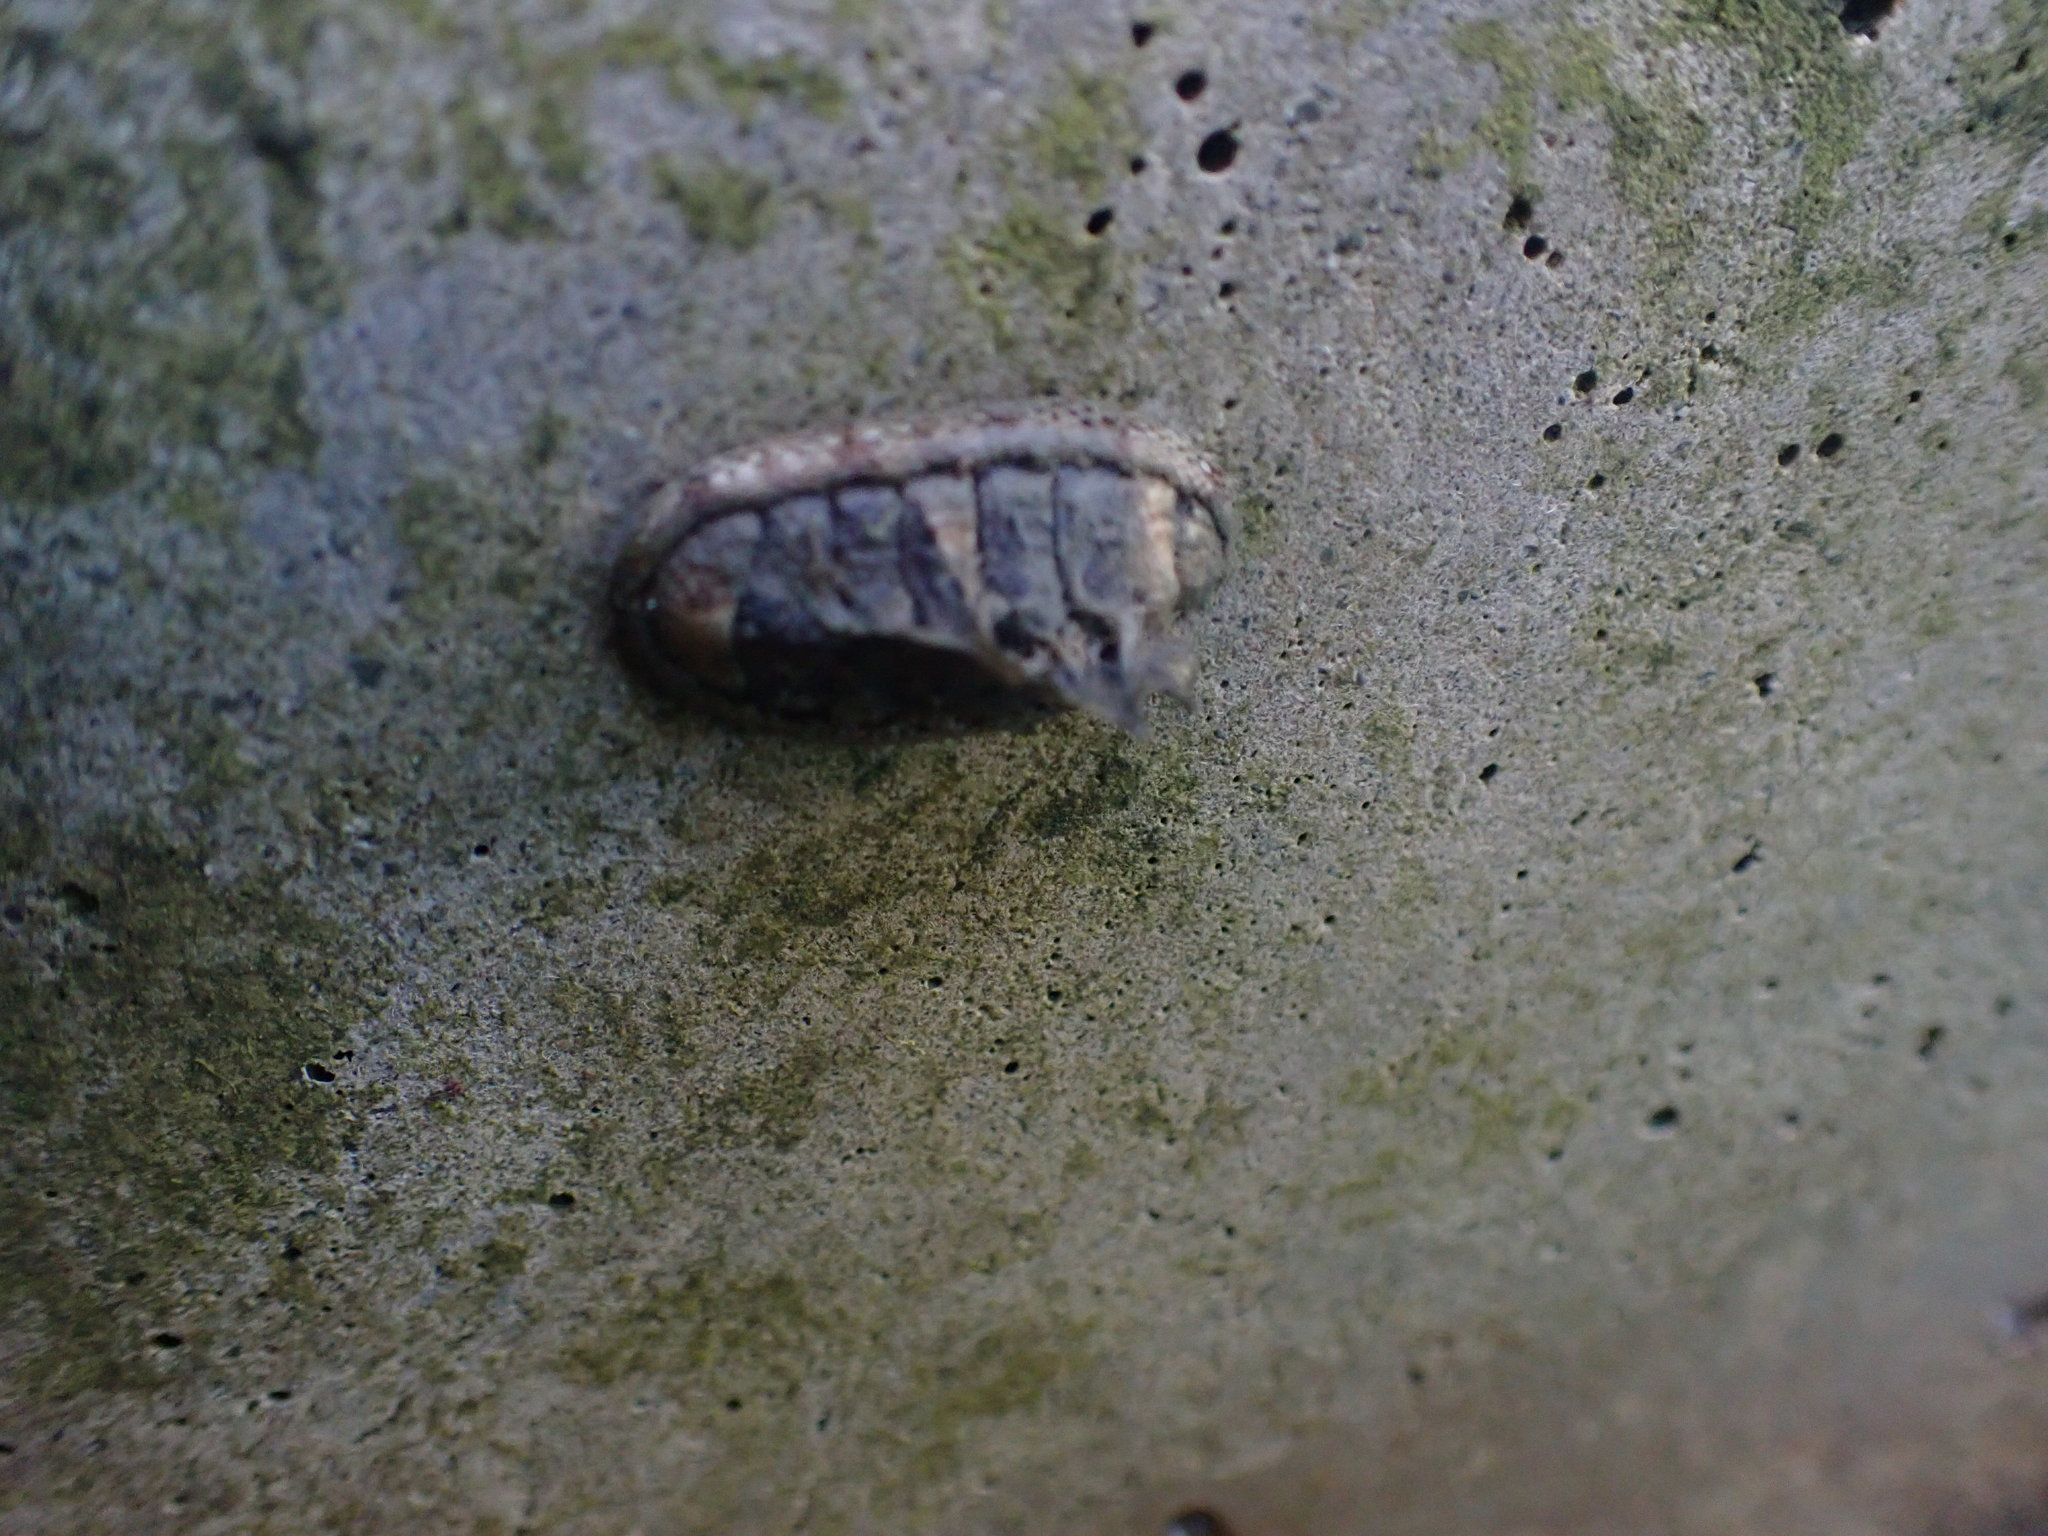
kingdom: Animalia
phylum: Mollusca
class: Polyplacophora
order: Chitonida
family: Chitonidae
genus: Sypharochiton
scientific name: Sypharochiton pelliserpentis
